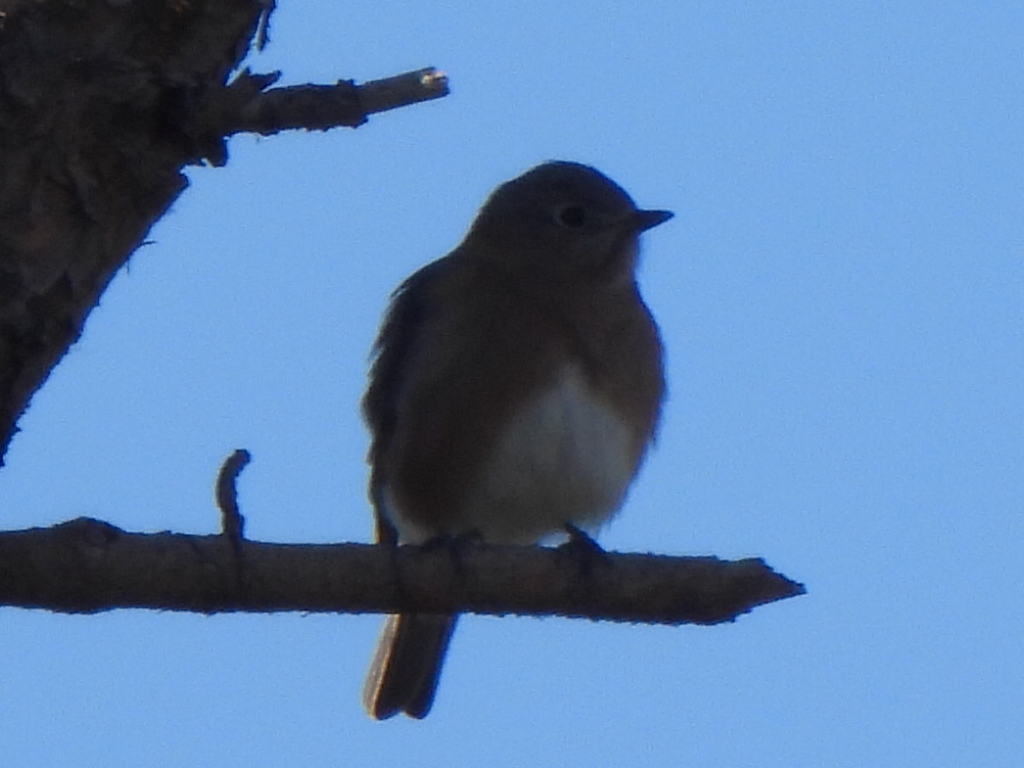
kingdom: Animalia
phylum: Chordata
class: Aves
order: Passeriformes
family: Turdidae
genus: Sialia
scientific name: Sialia sialis
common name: Eastern bluebird
